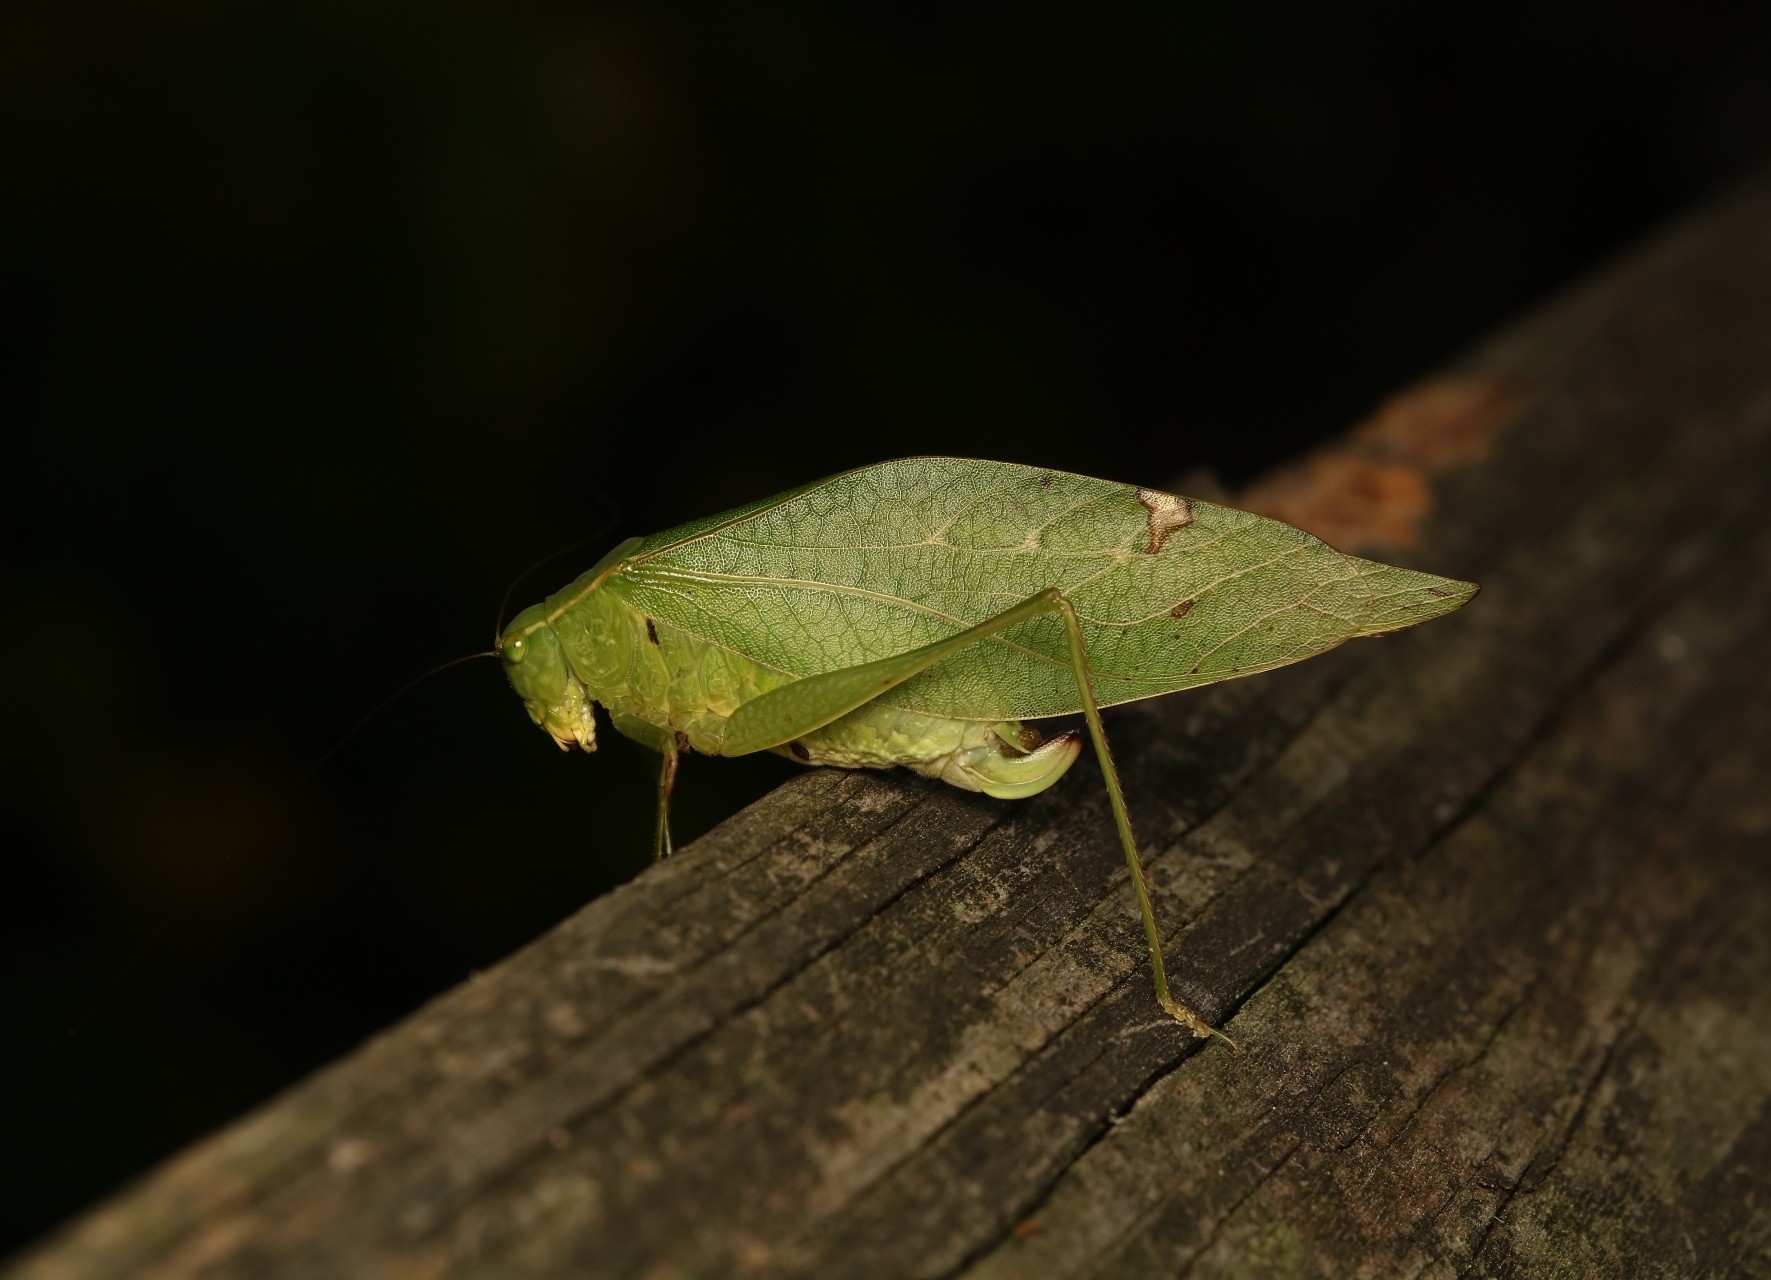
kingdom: Animalia
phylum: Arthropoda
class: Insecta
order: Orthoptera
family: Tettigoniidae
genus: Microcentrum
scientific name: Microcentrum retinerve
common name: Angular-winged katydid
